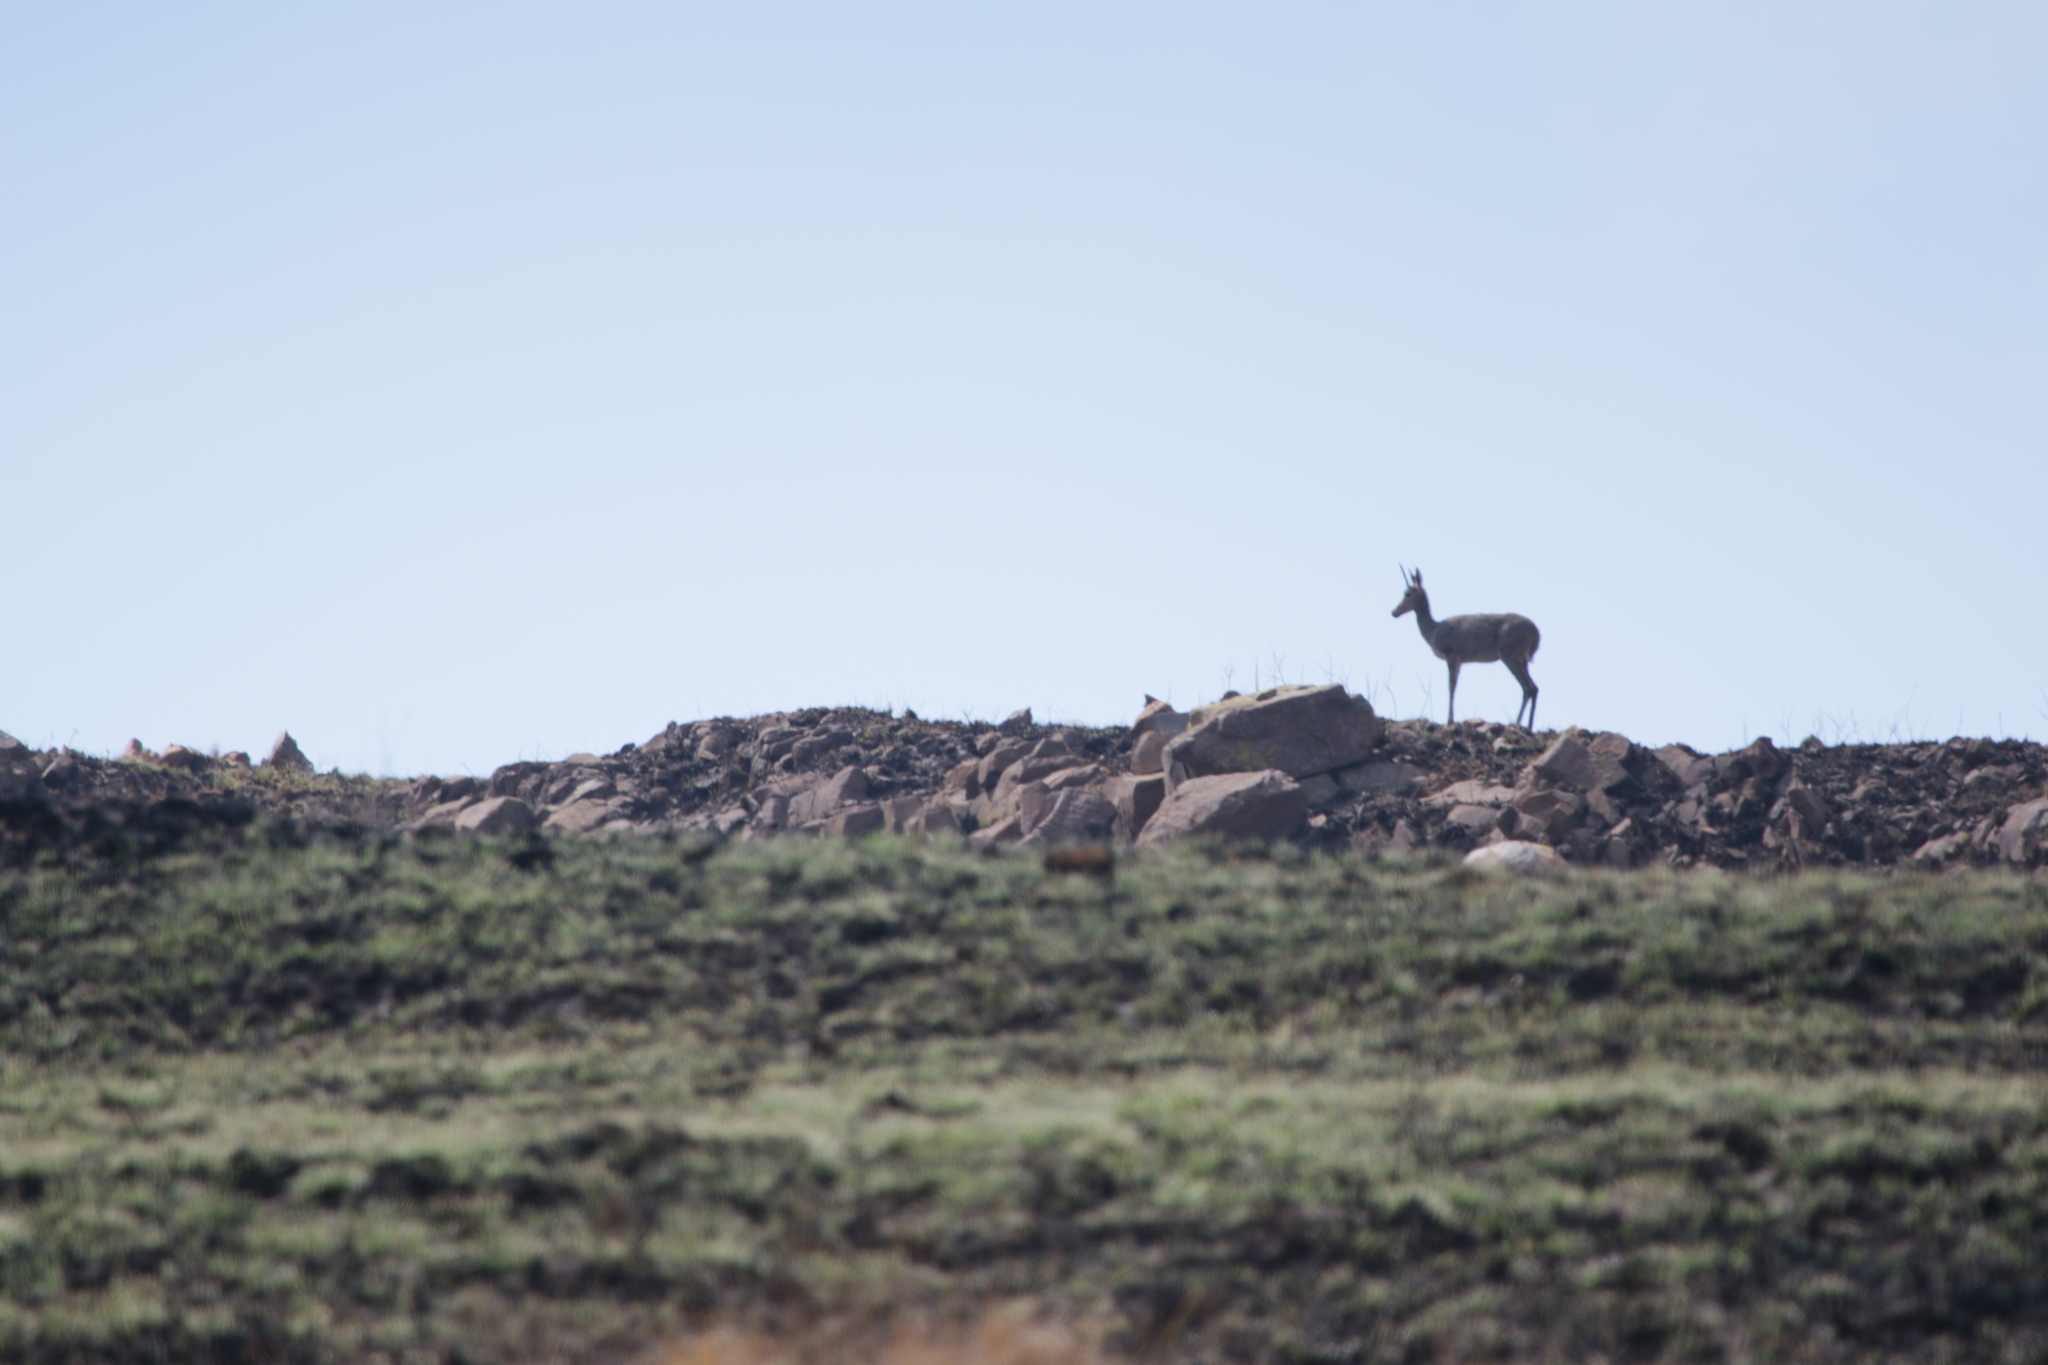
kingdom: Animalia
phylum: Chordata
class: Mammalia
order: Artiodactyla
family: Bovidae
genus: Pelea
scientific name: Pelea capreolus
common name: Common rhebok
